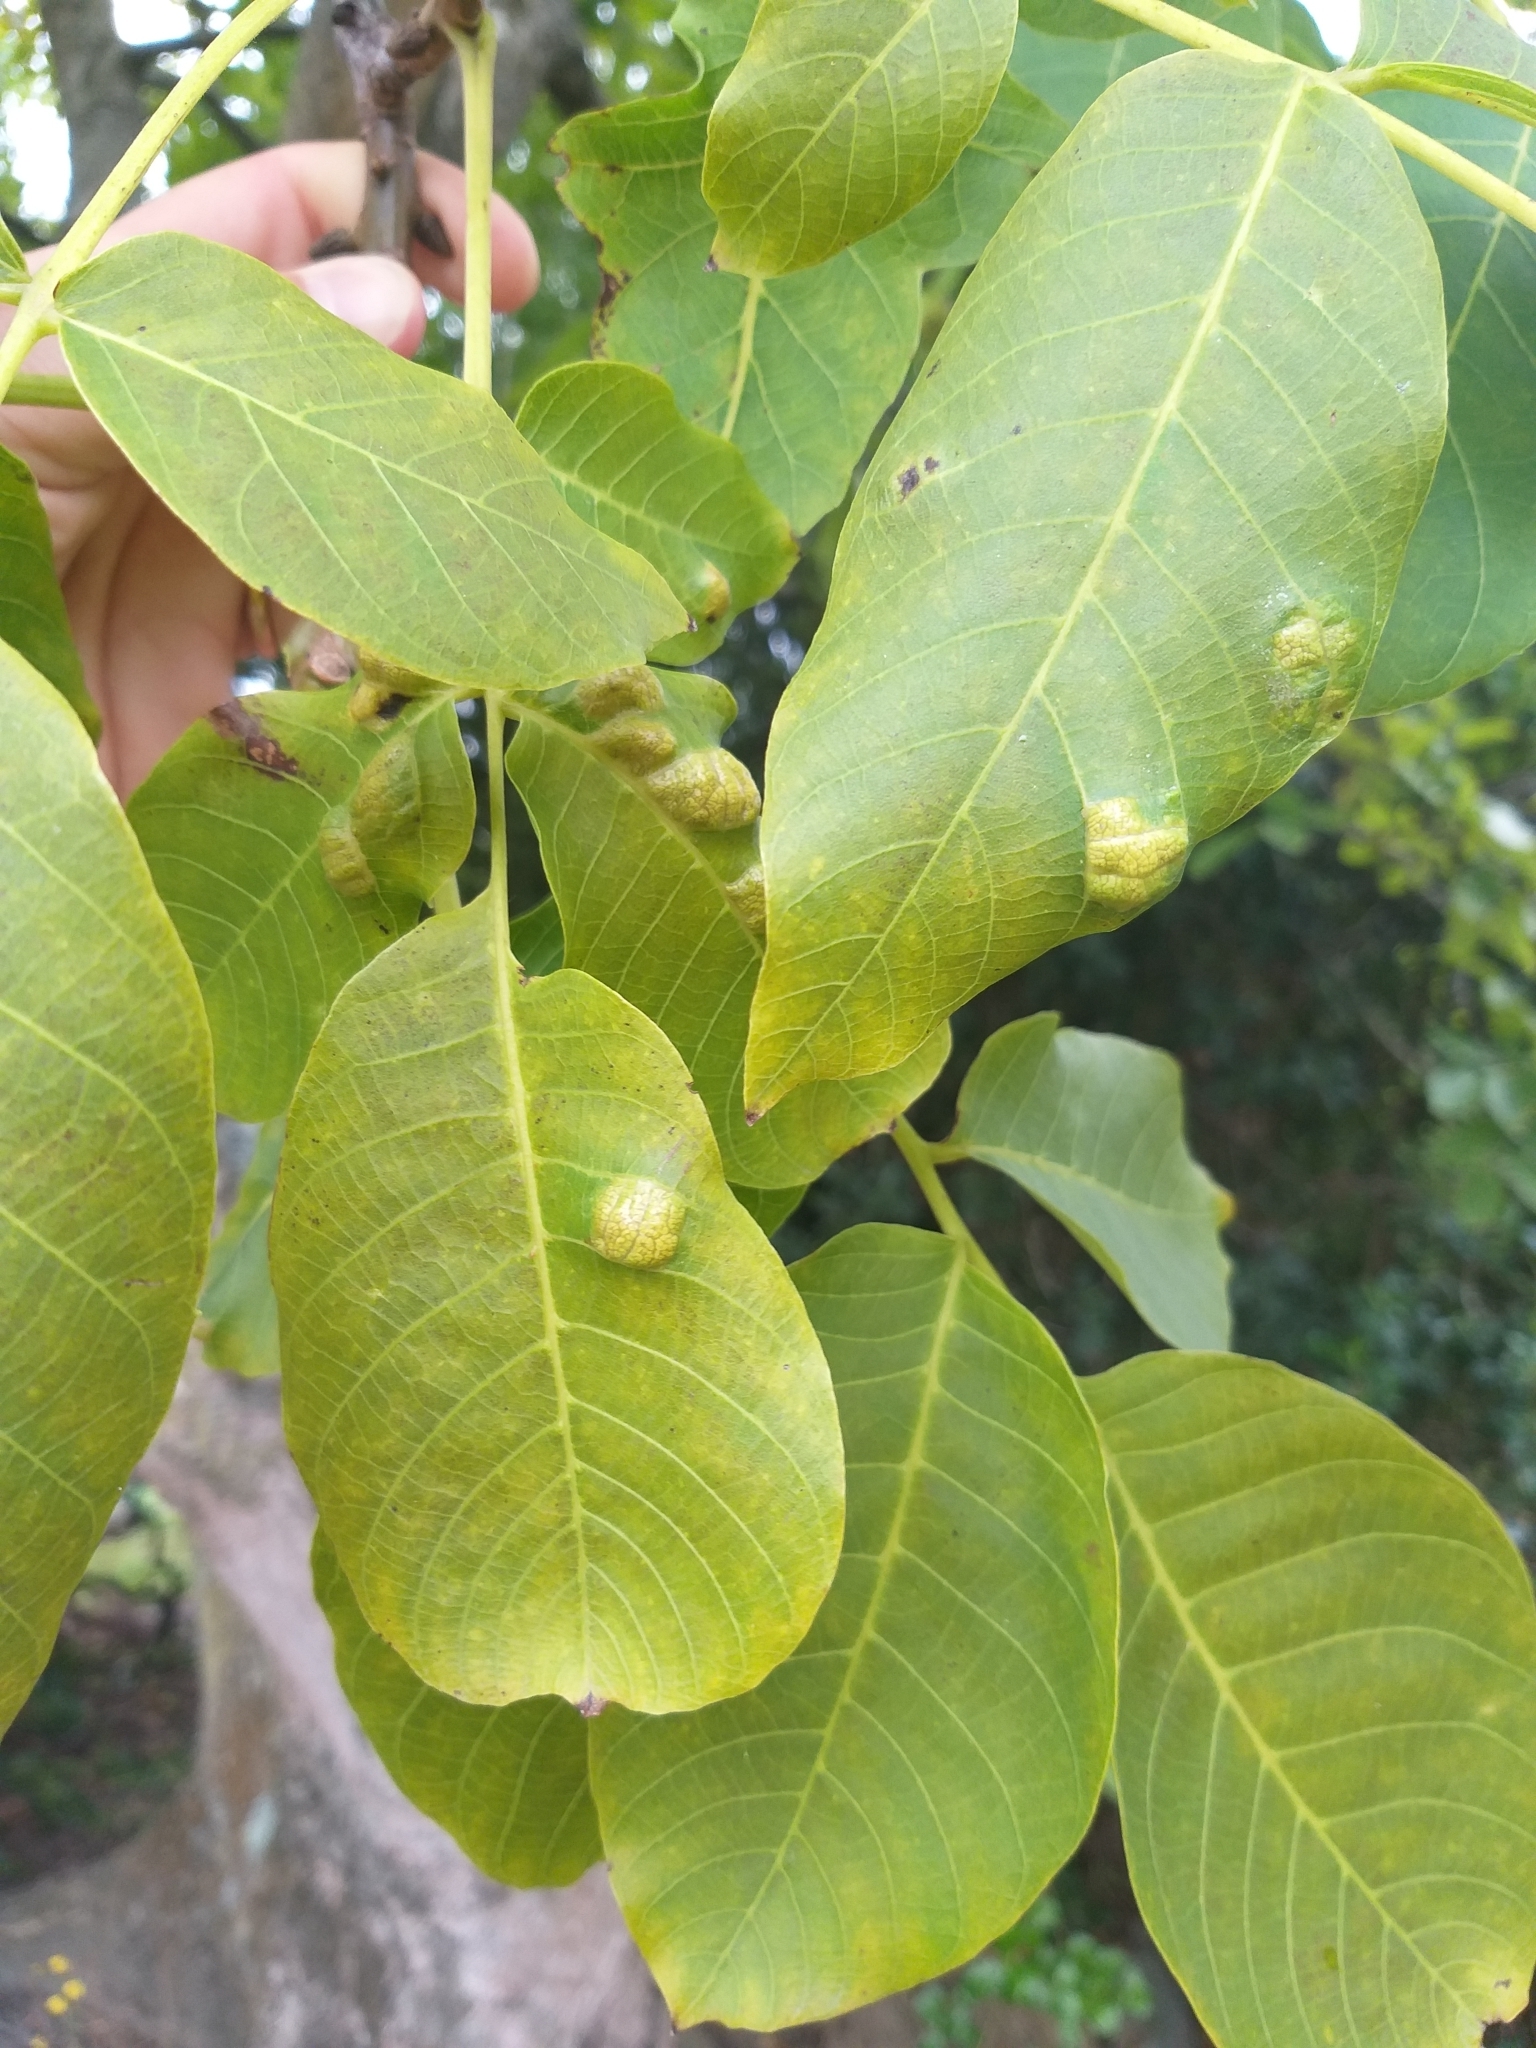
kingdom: Animalia
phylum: Arthropoda
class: Arachnida
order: Trombidiformes
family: Eriophyidae
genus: Aceria
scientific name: Aceria erinea
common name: Persian walnut erineum mite
